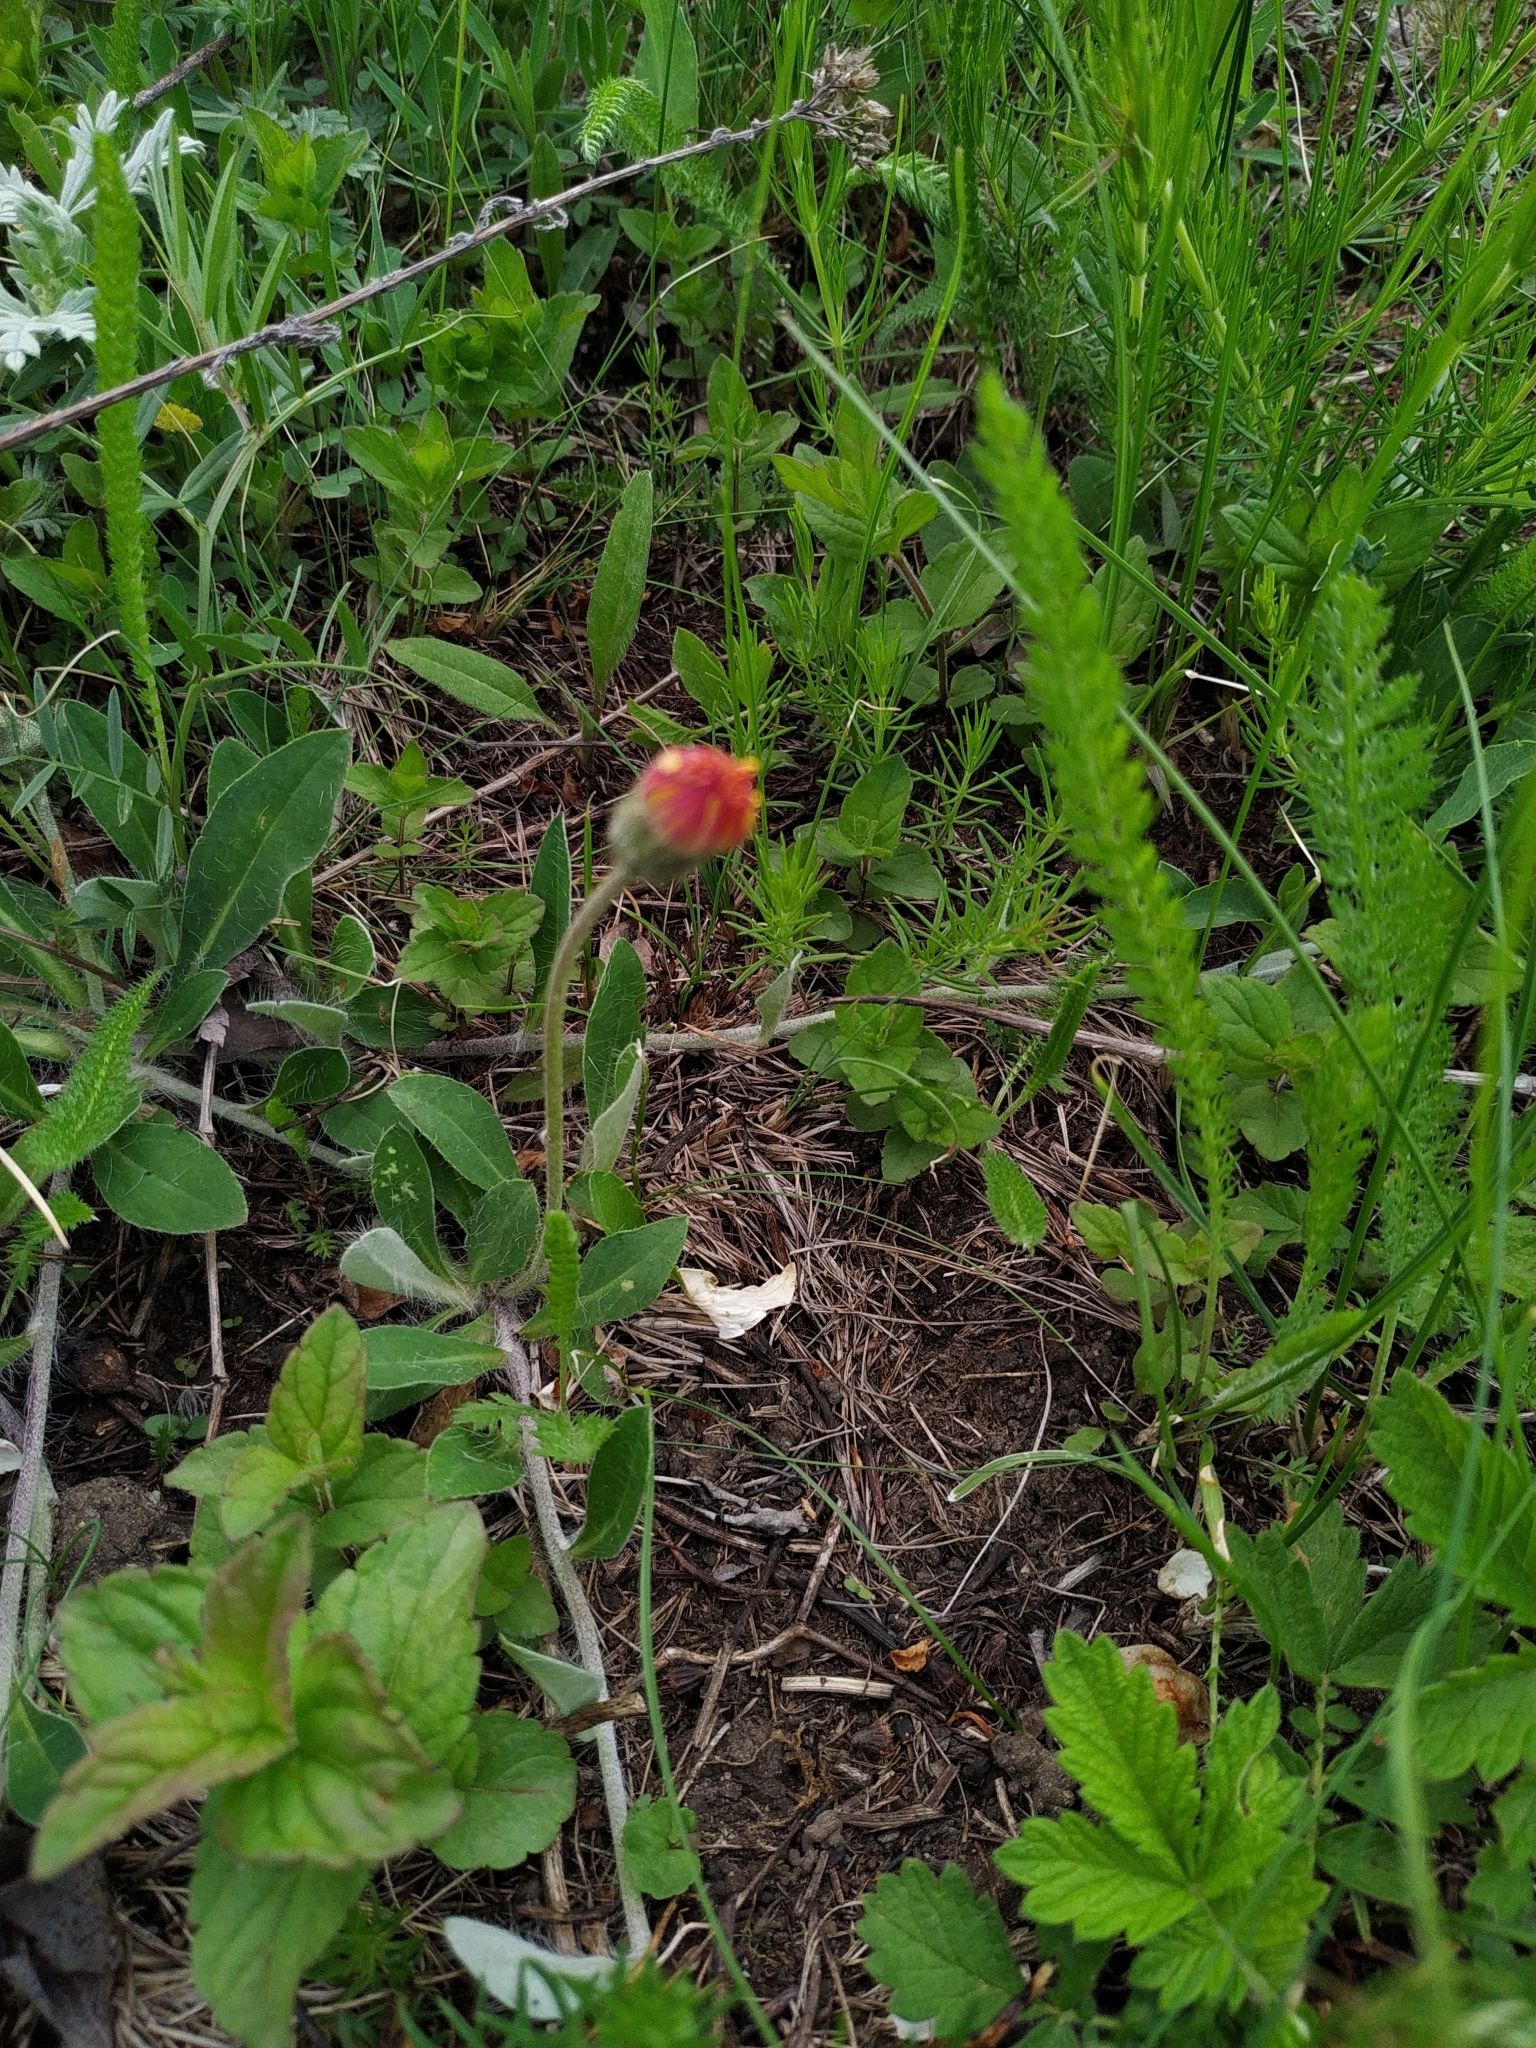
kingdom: Plantae
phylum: Tracheophyta
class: Magnoliopsida
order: Asterales
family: Asteraceae
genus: Pilosella
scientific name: Pilosella officinarum
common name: Mouse-ear hawkweed
